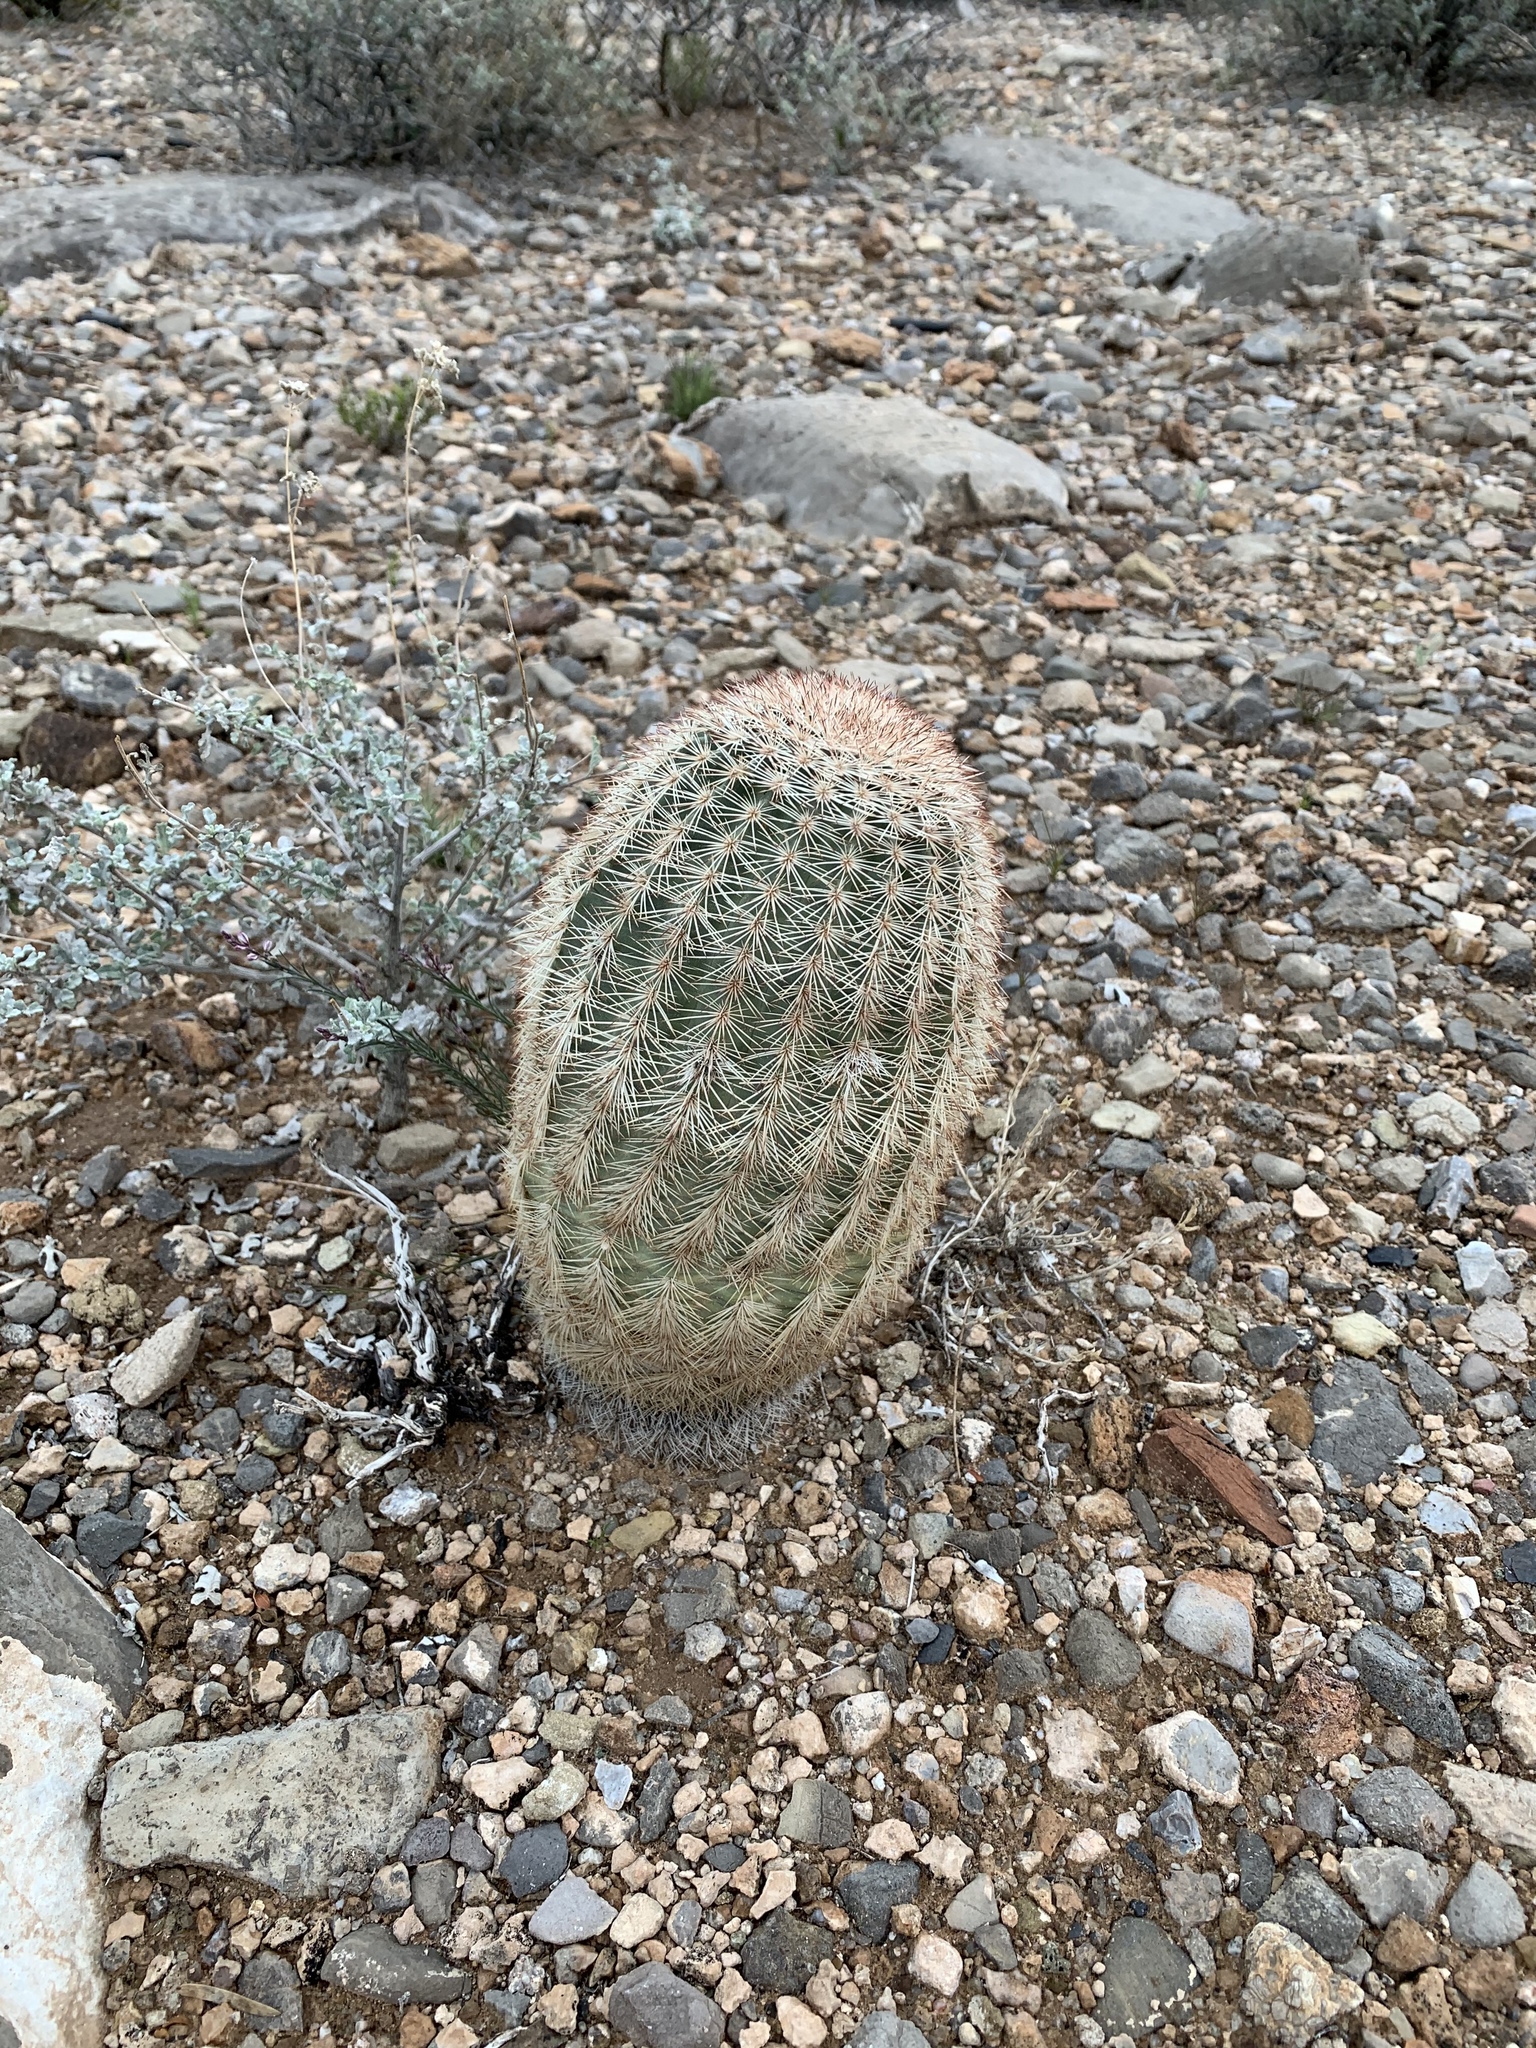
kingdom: Plantae
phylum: Tracheophyta
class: Magnoliopsida
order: Caryophyllales
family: Cactaceae
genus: Echinocereus
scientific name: Echinocereus dasyacanthus
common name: Spiny hedgehog cactus
